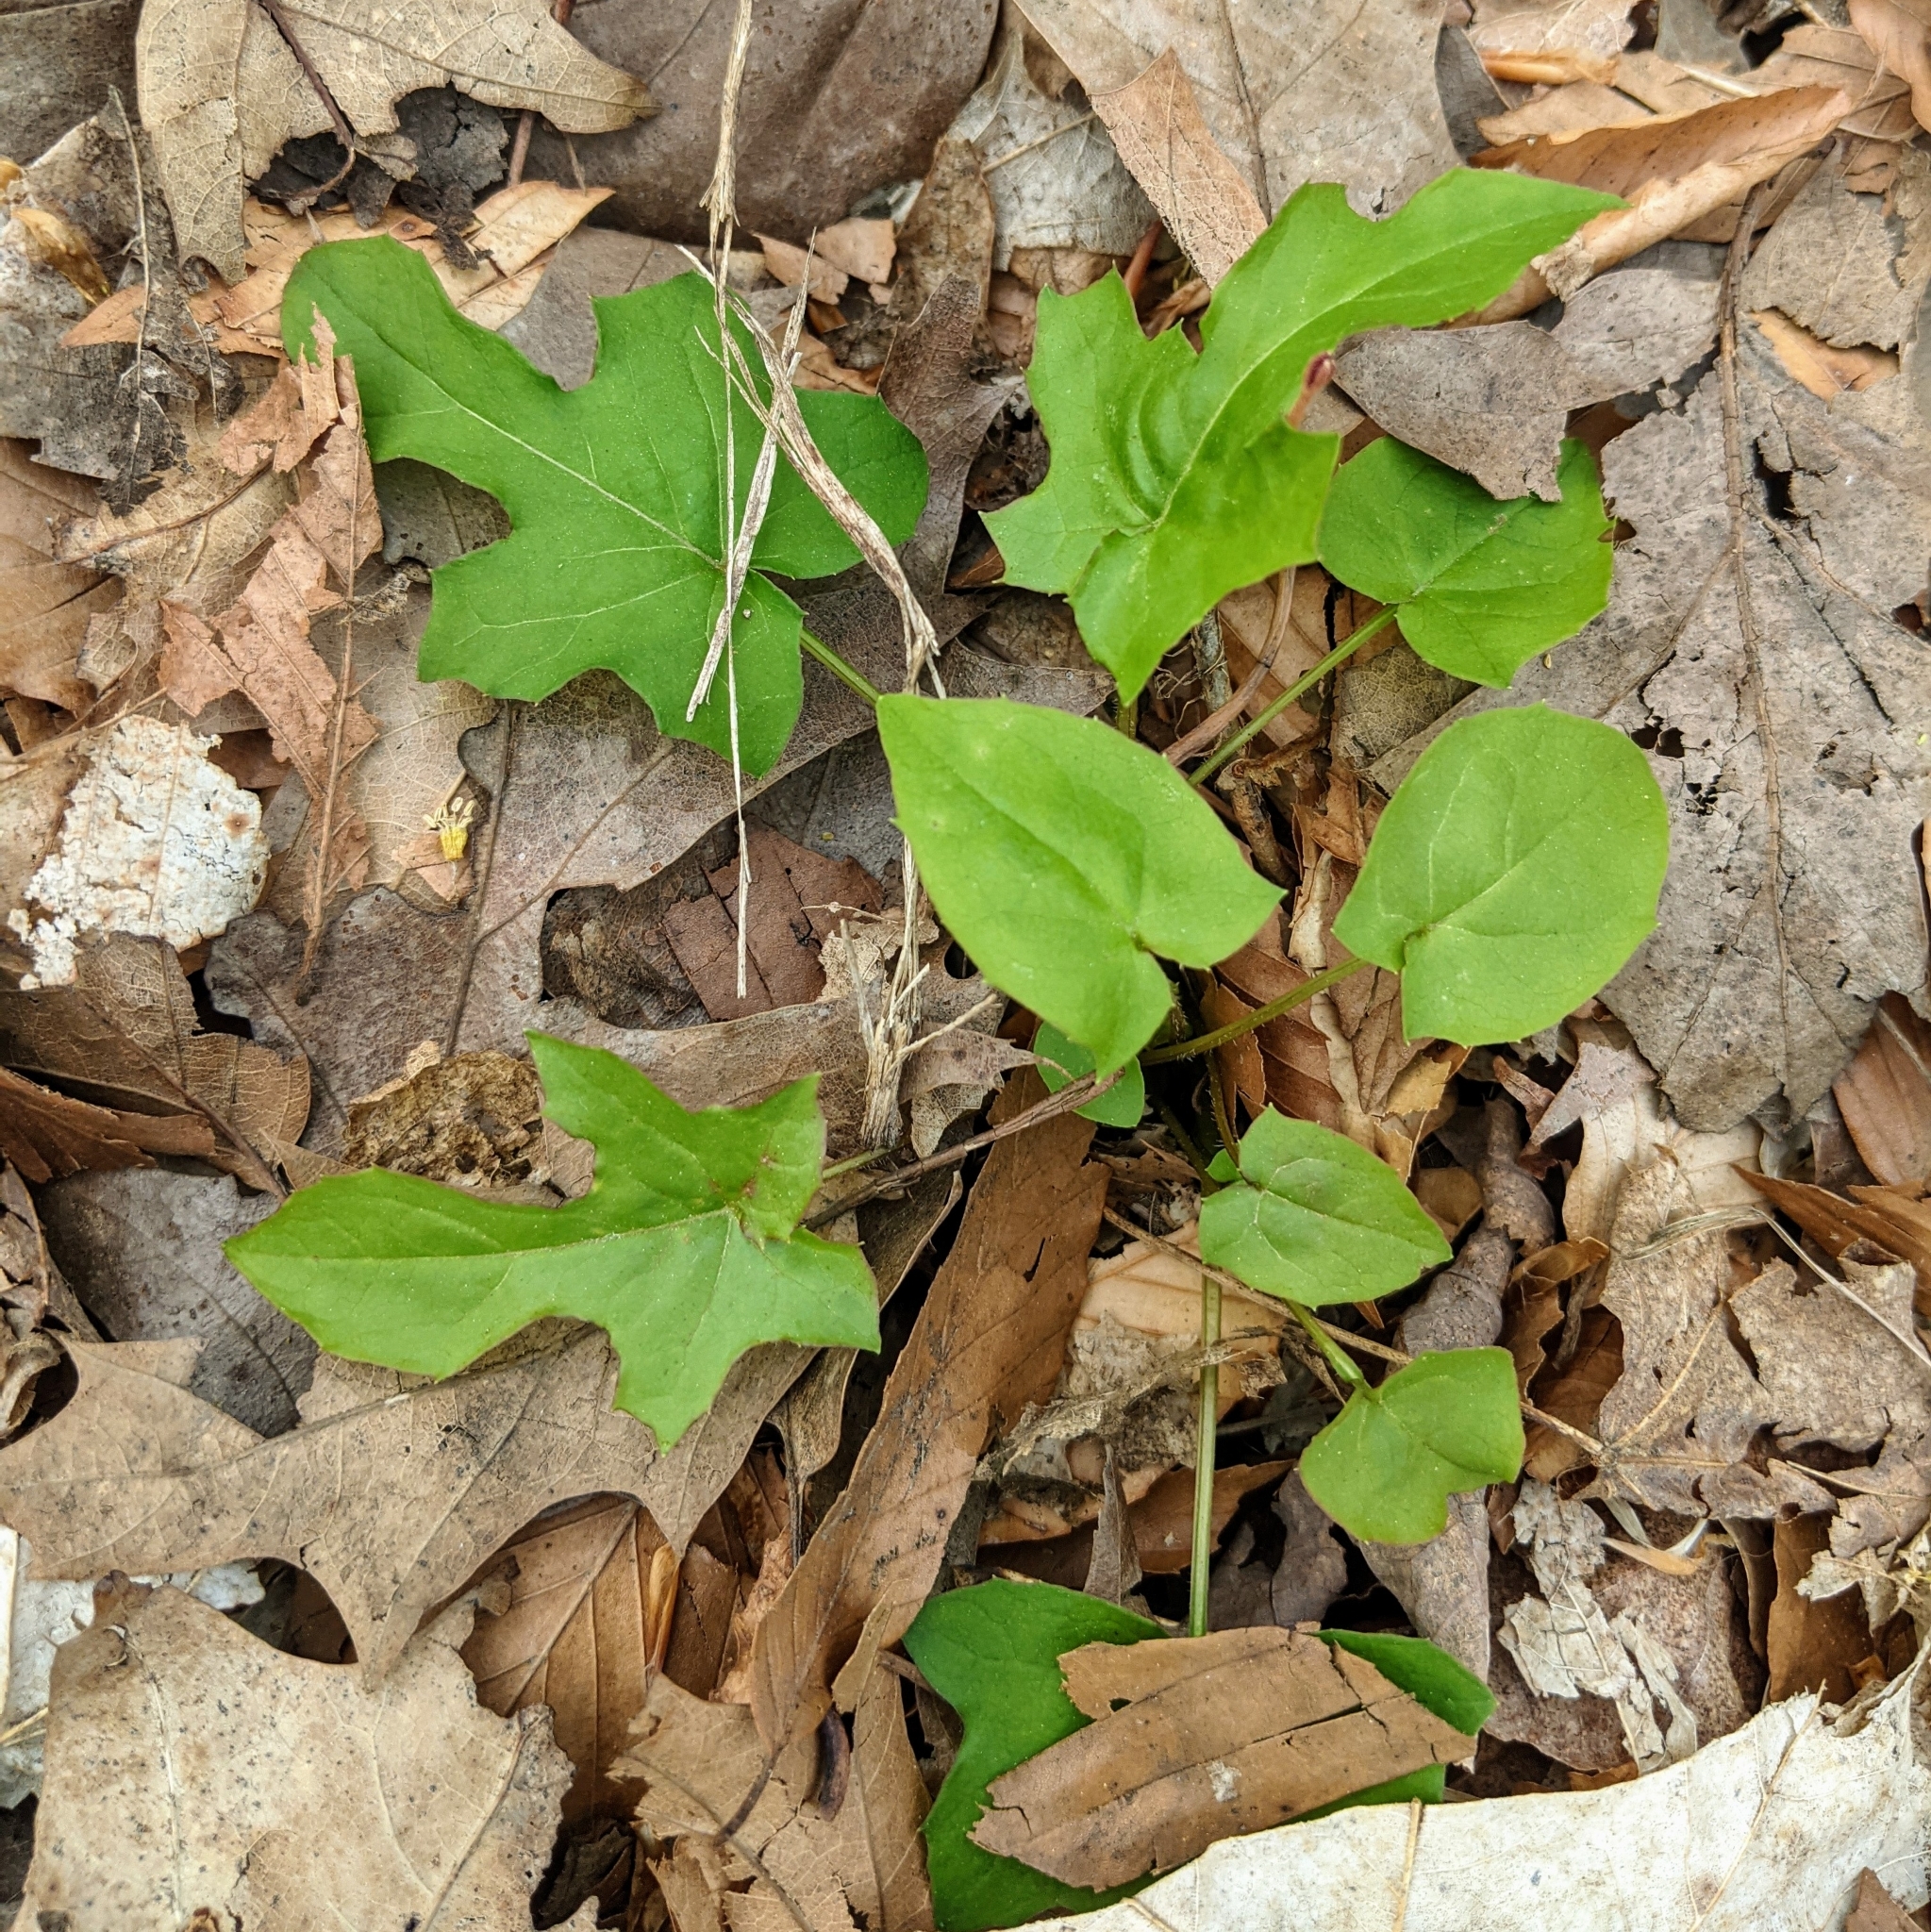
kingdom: Plantae
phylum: Tracheophyta
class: Magnoliopsida
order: Asterales
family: Asteraceae
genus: Nabalus
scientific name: Nabalus albus
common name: White rattlesnakeroot
